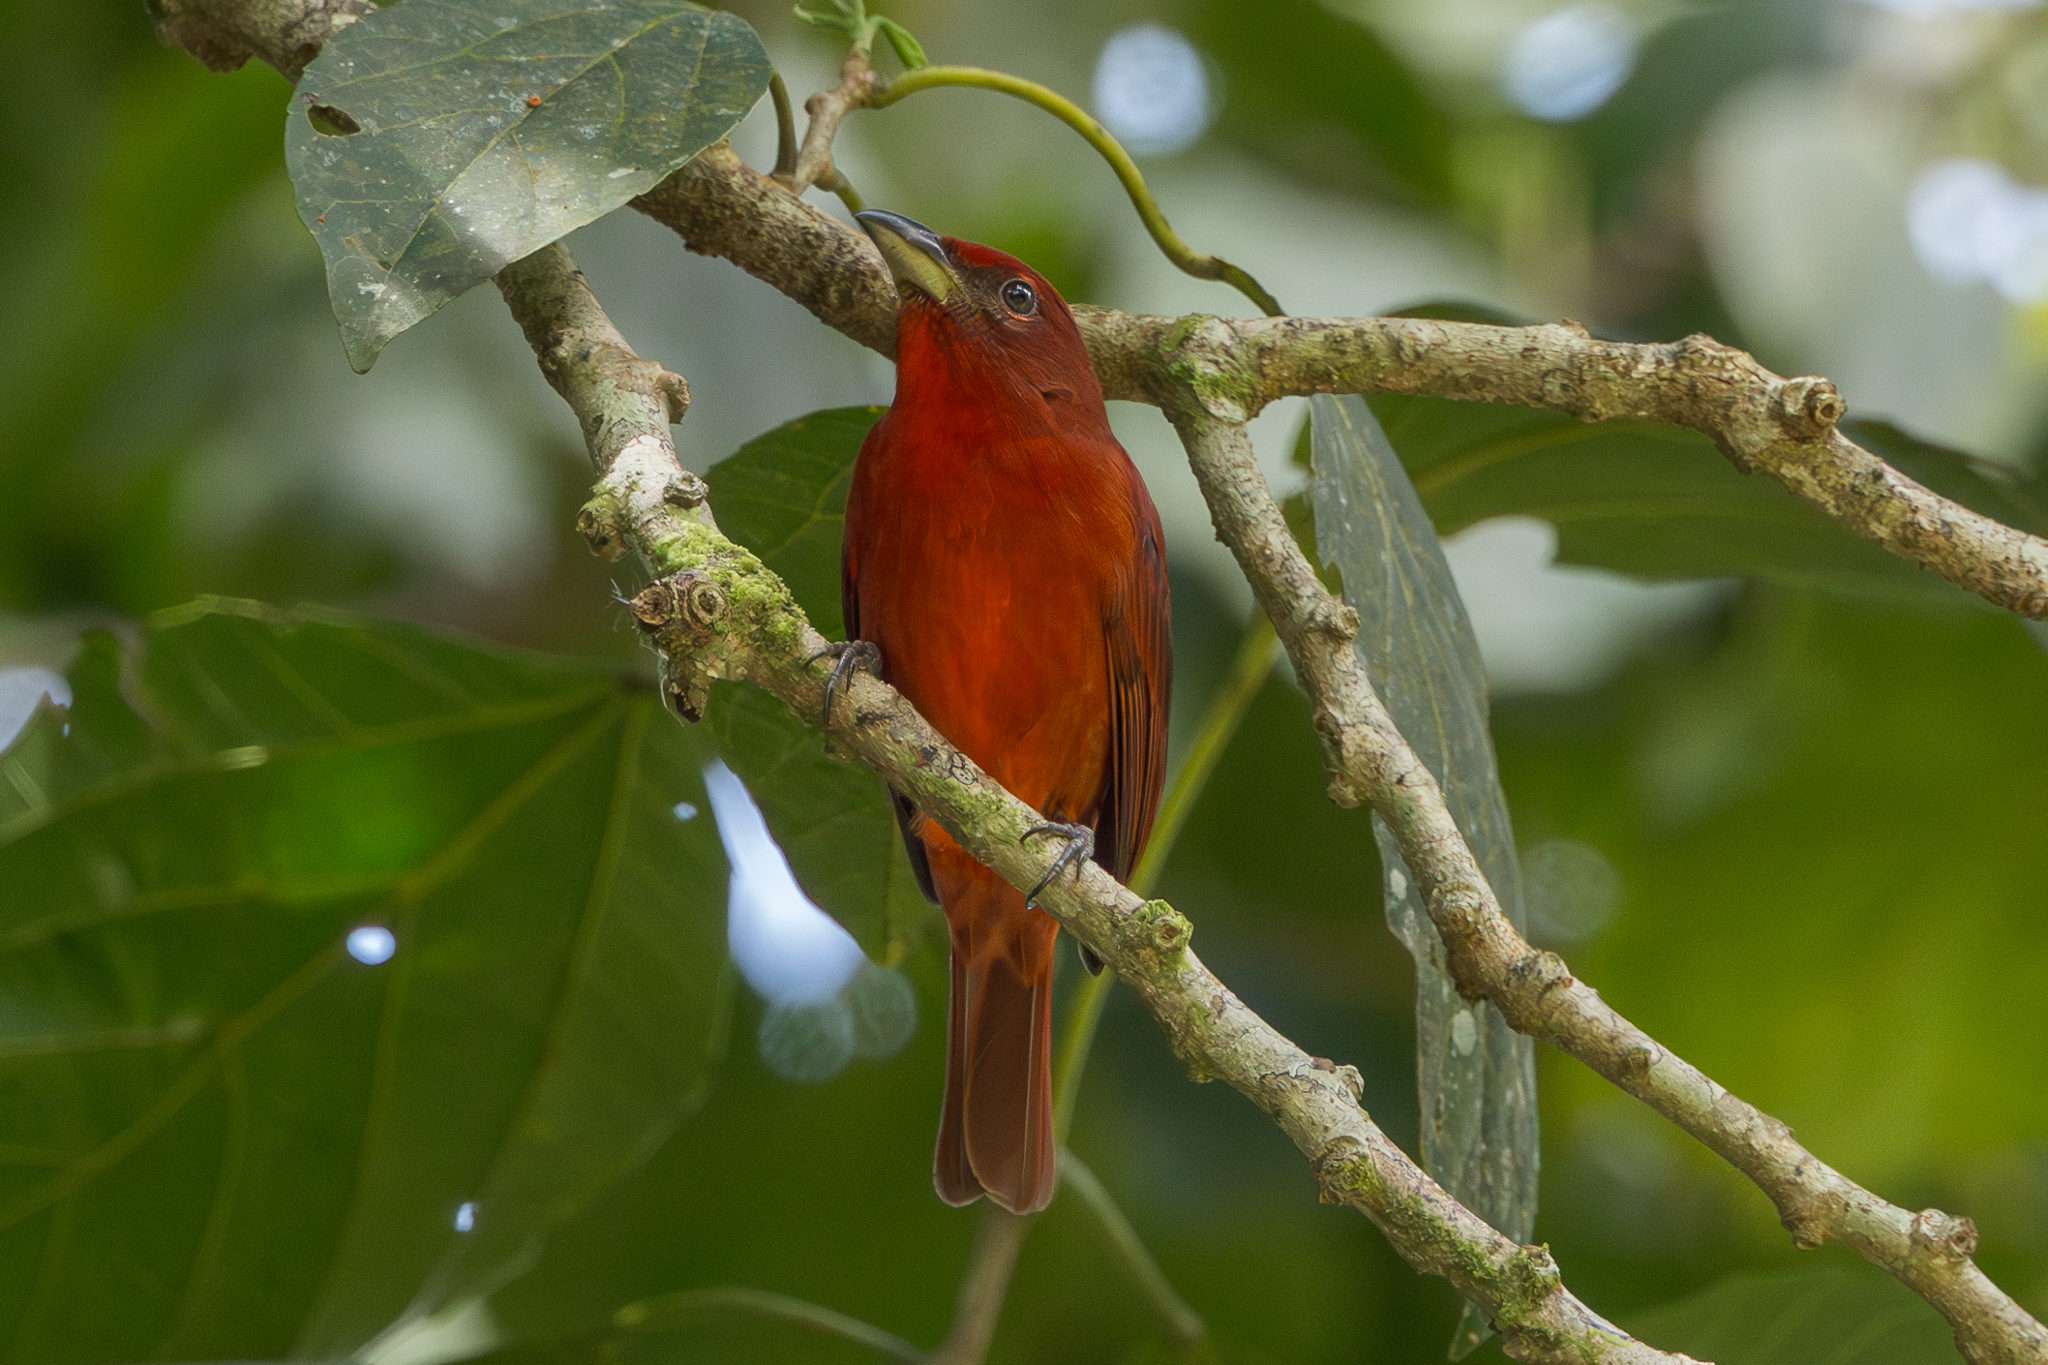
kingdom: Animalia
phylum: Chordata
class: Aves
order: Passeriformes
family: Cardinalidae
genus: Piranga
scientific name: Piranga flava
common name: Red tanager
